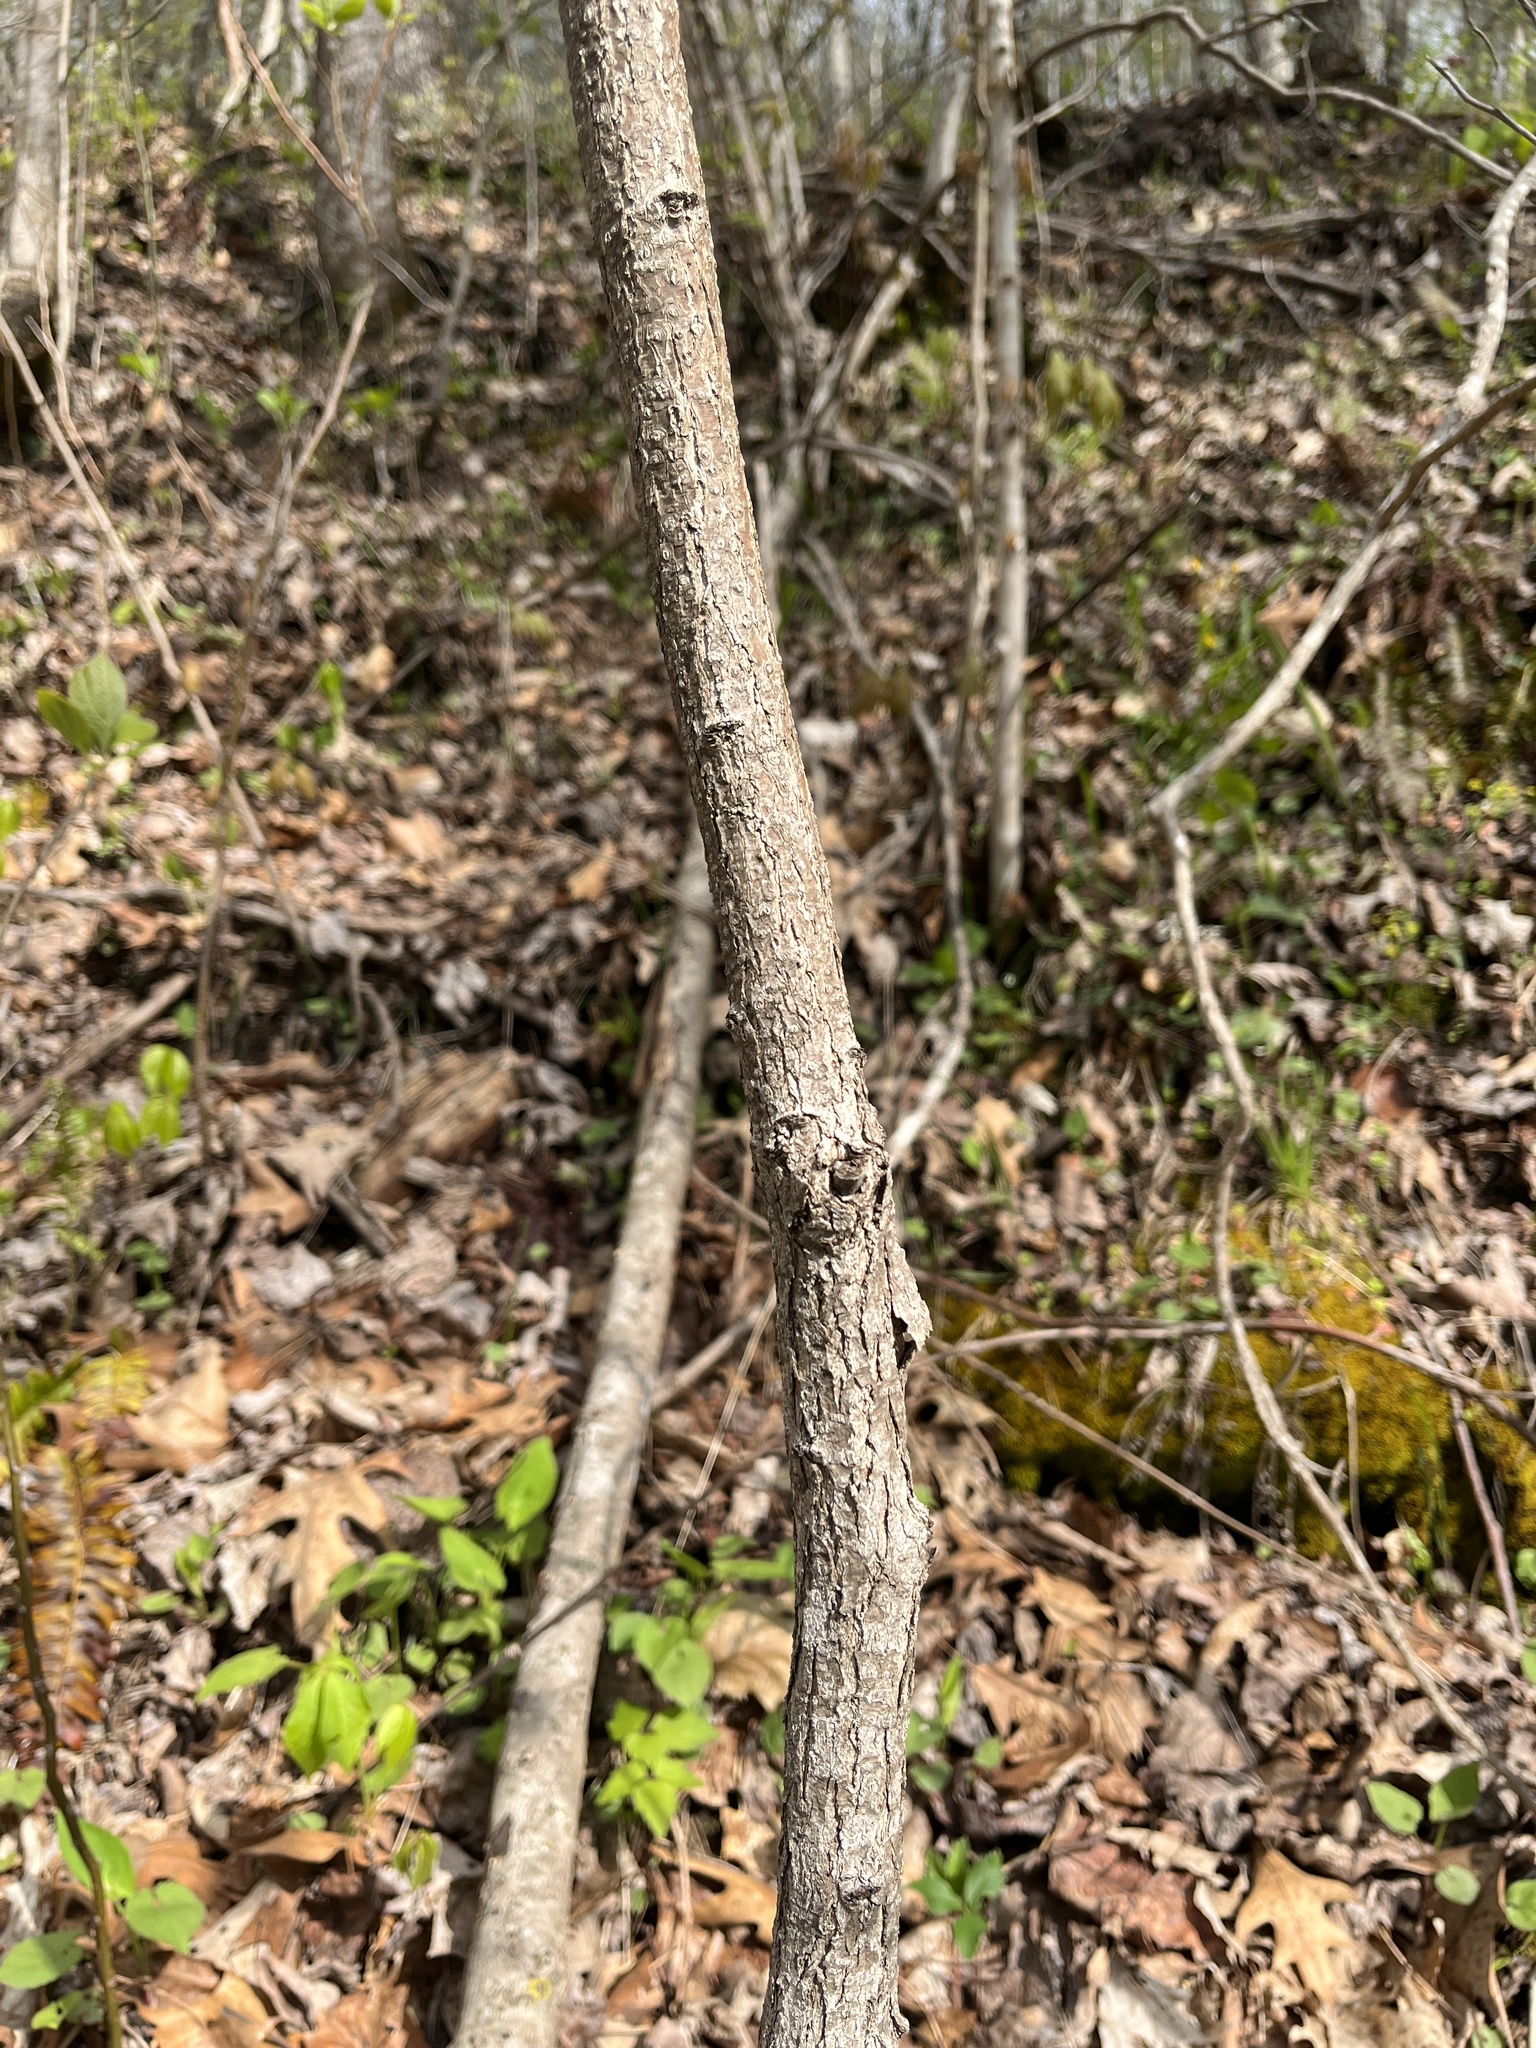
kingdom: Plantae
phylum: Tracheophyta
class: Magnoliopsida
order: Laurales
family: Lauraceae
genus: Sassafras
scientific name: Sassafras albidum
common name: Sassafras
